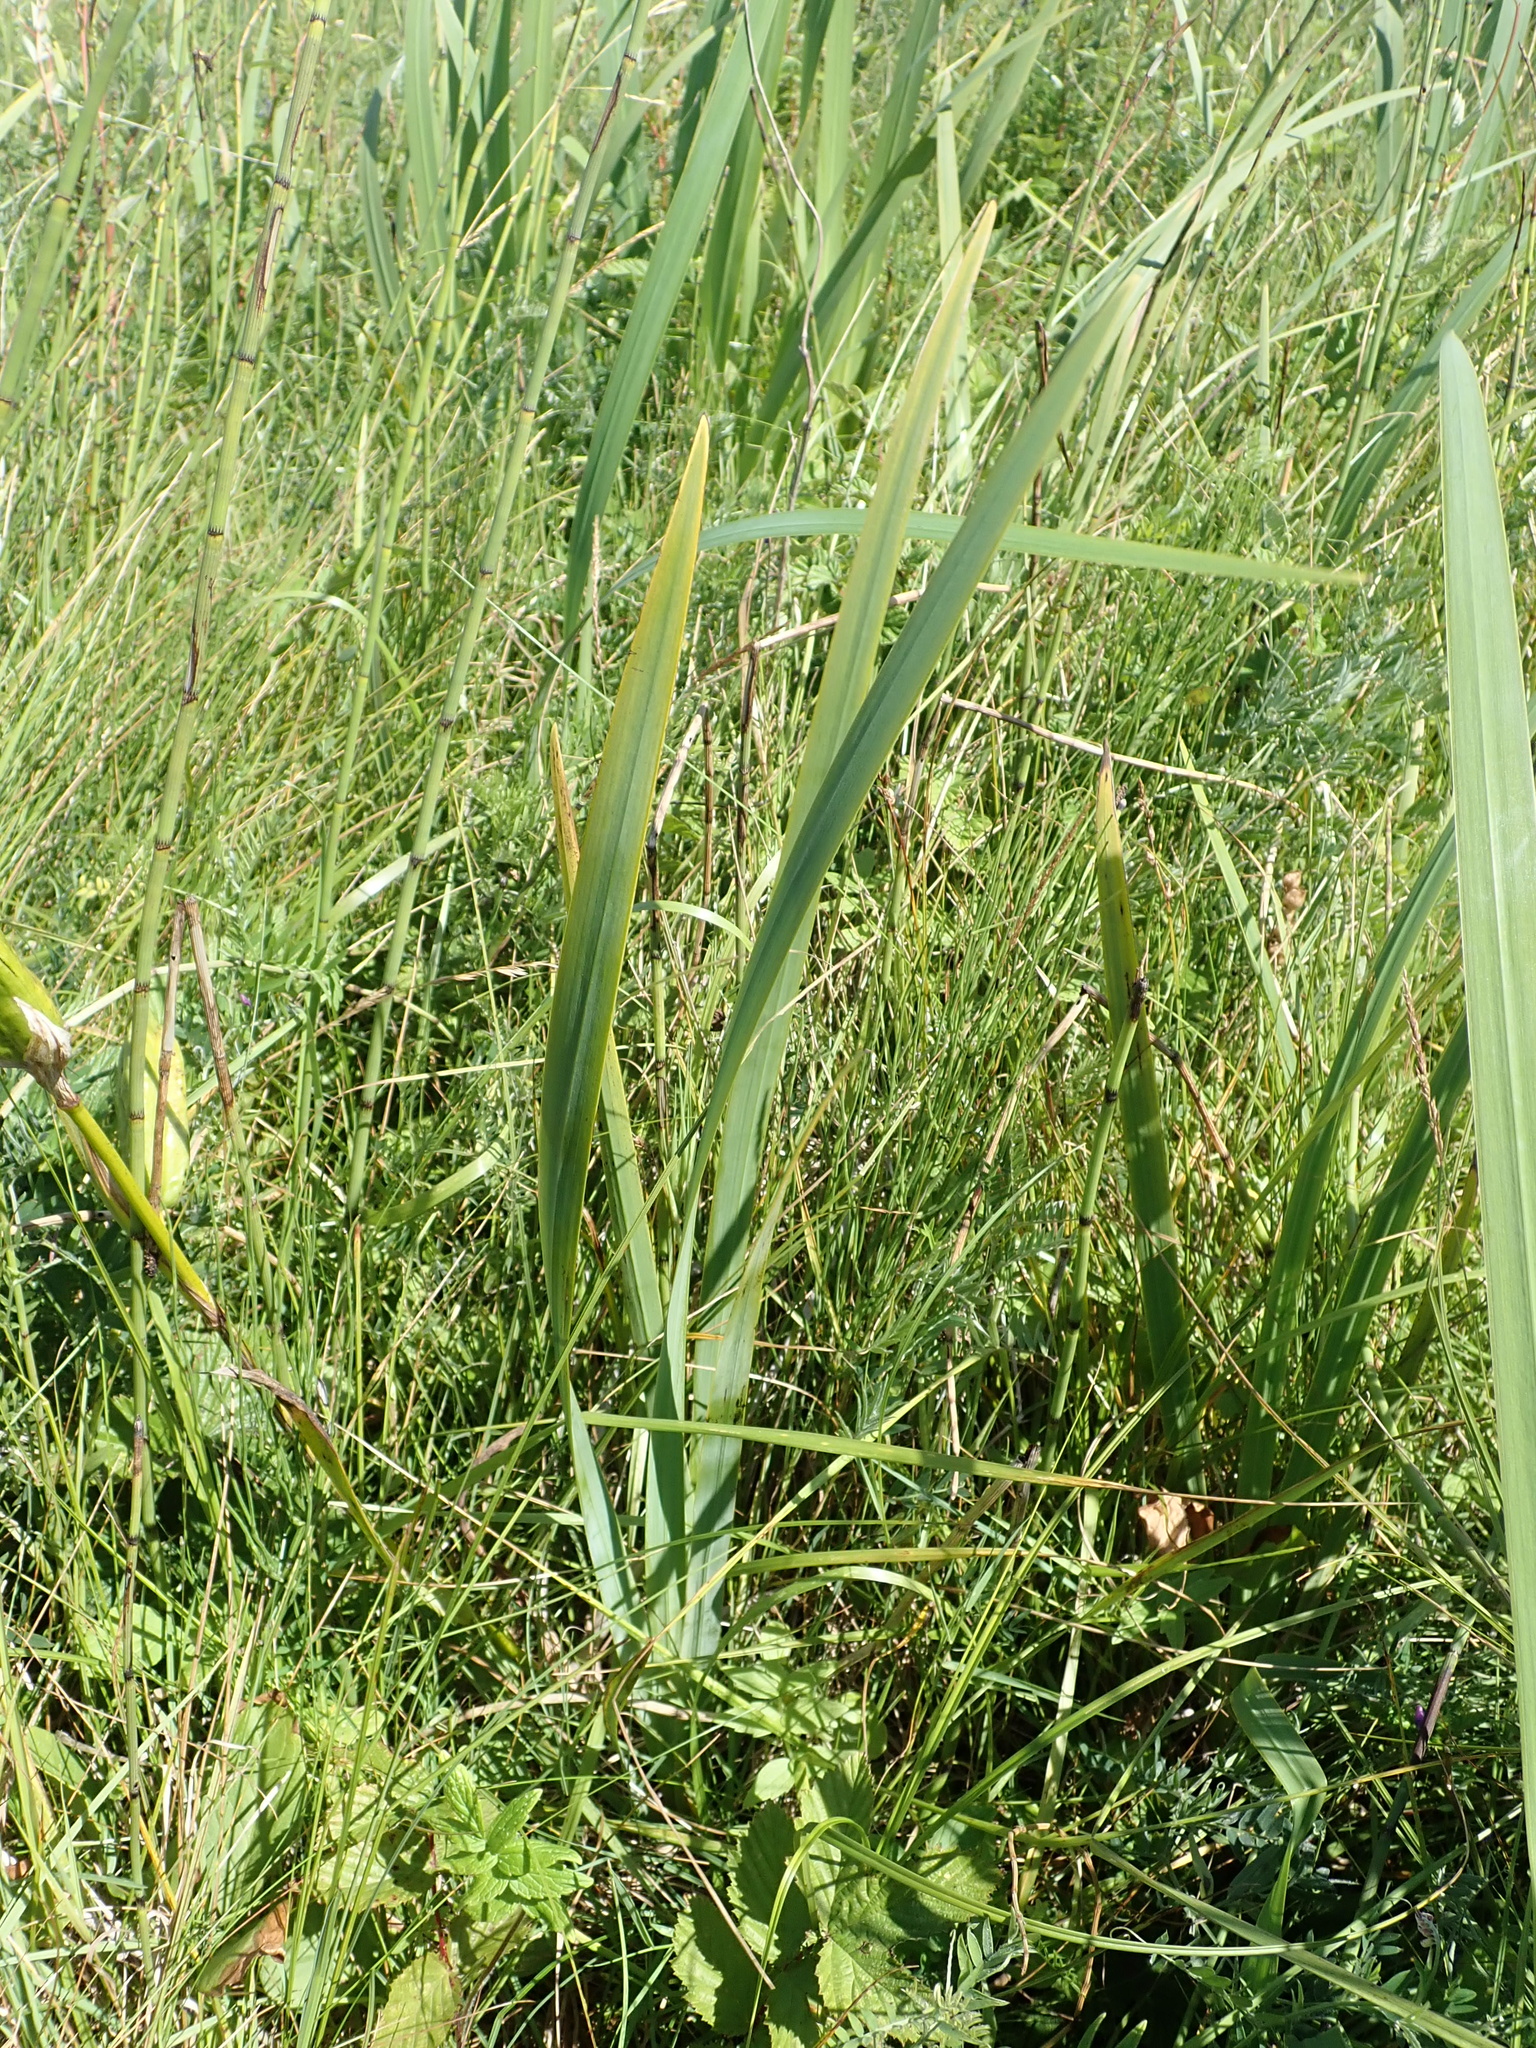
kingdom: Plantae
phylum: Tracheophyta
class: Liliopsida
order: Asparagales
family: Iridaceae
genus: Iris
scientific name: Iris pseudacorus
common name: Yellow flag
